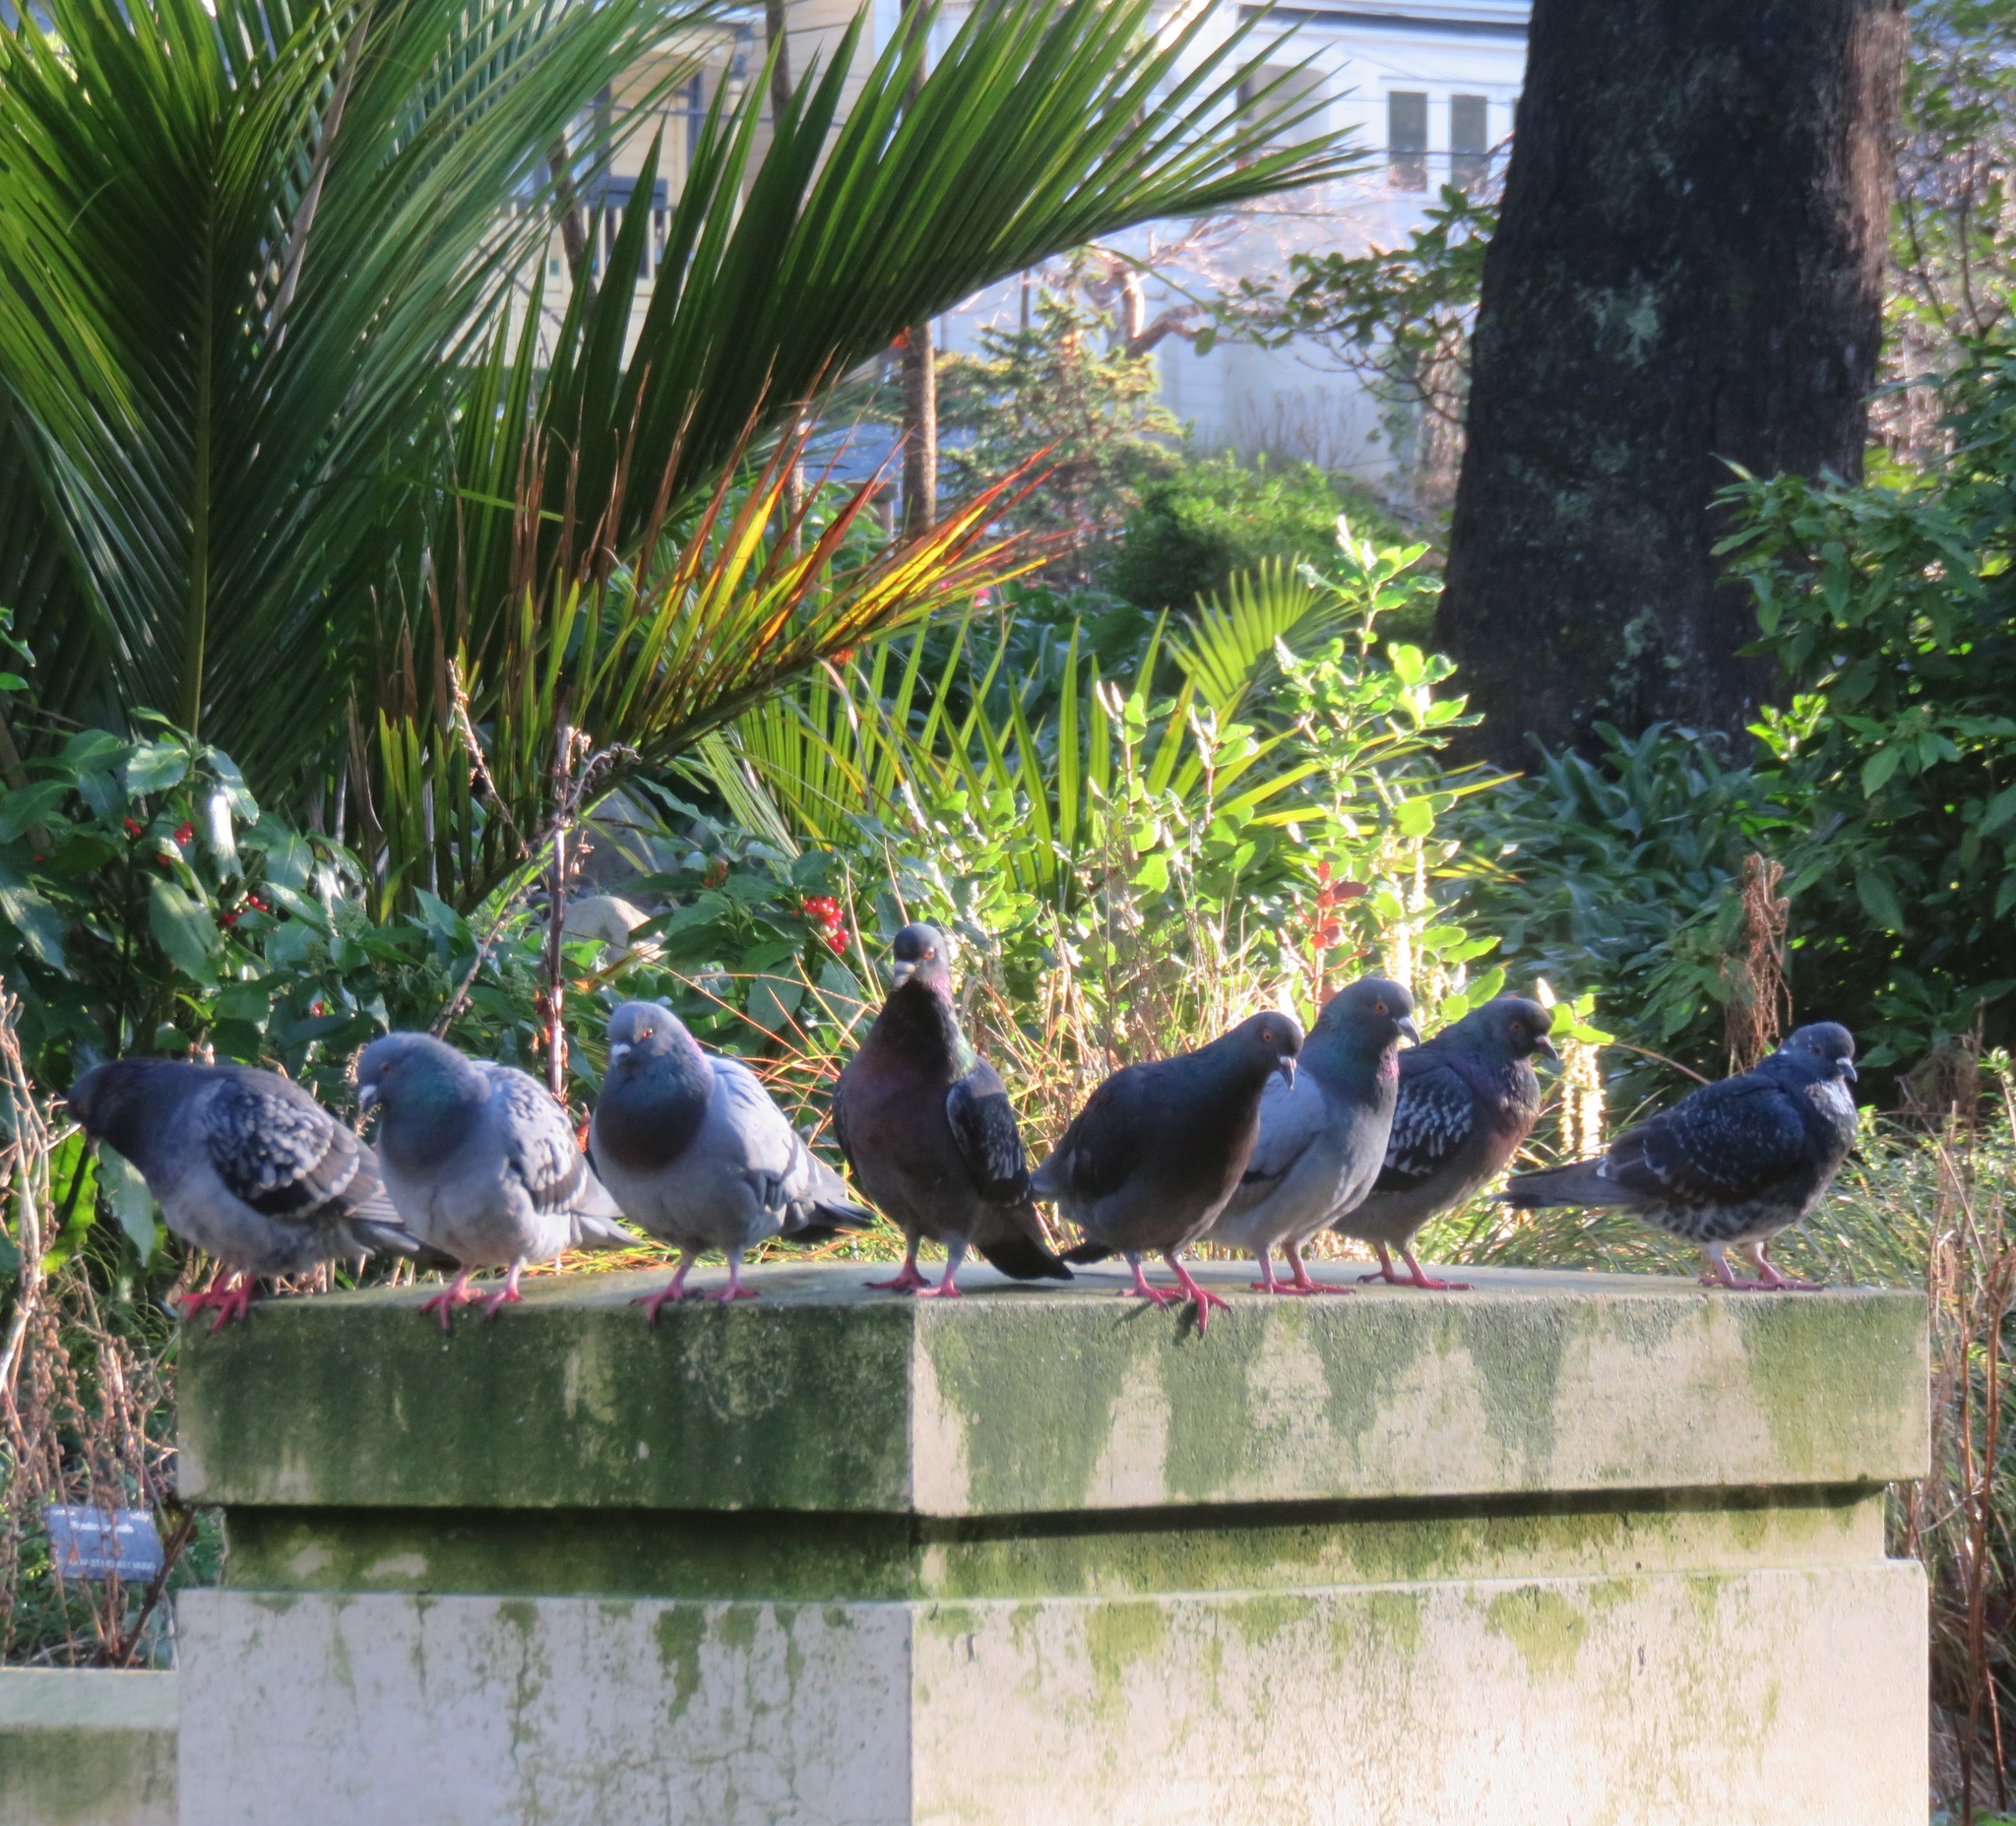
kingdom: Animalia
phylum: Chordata
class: Aves
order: Columbiformes
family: Columbidae
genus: Columba
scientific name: Columba livia
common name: Rock pigeon
